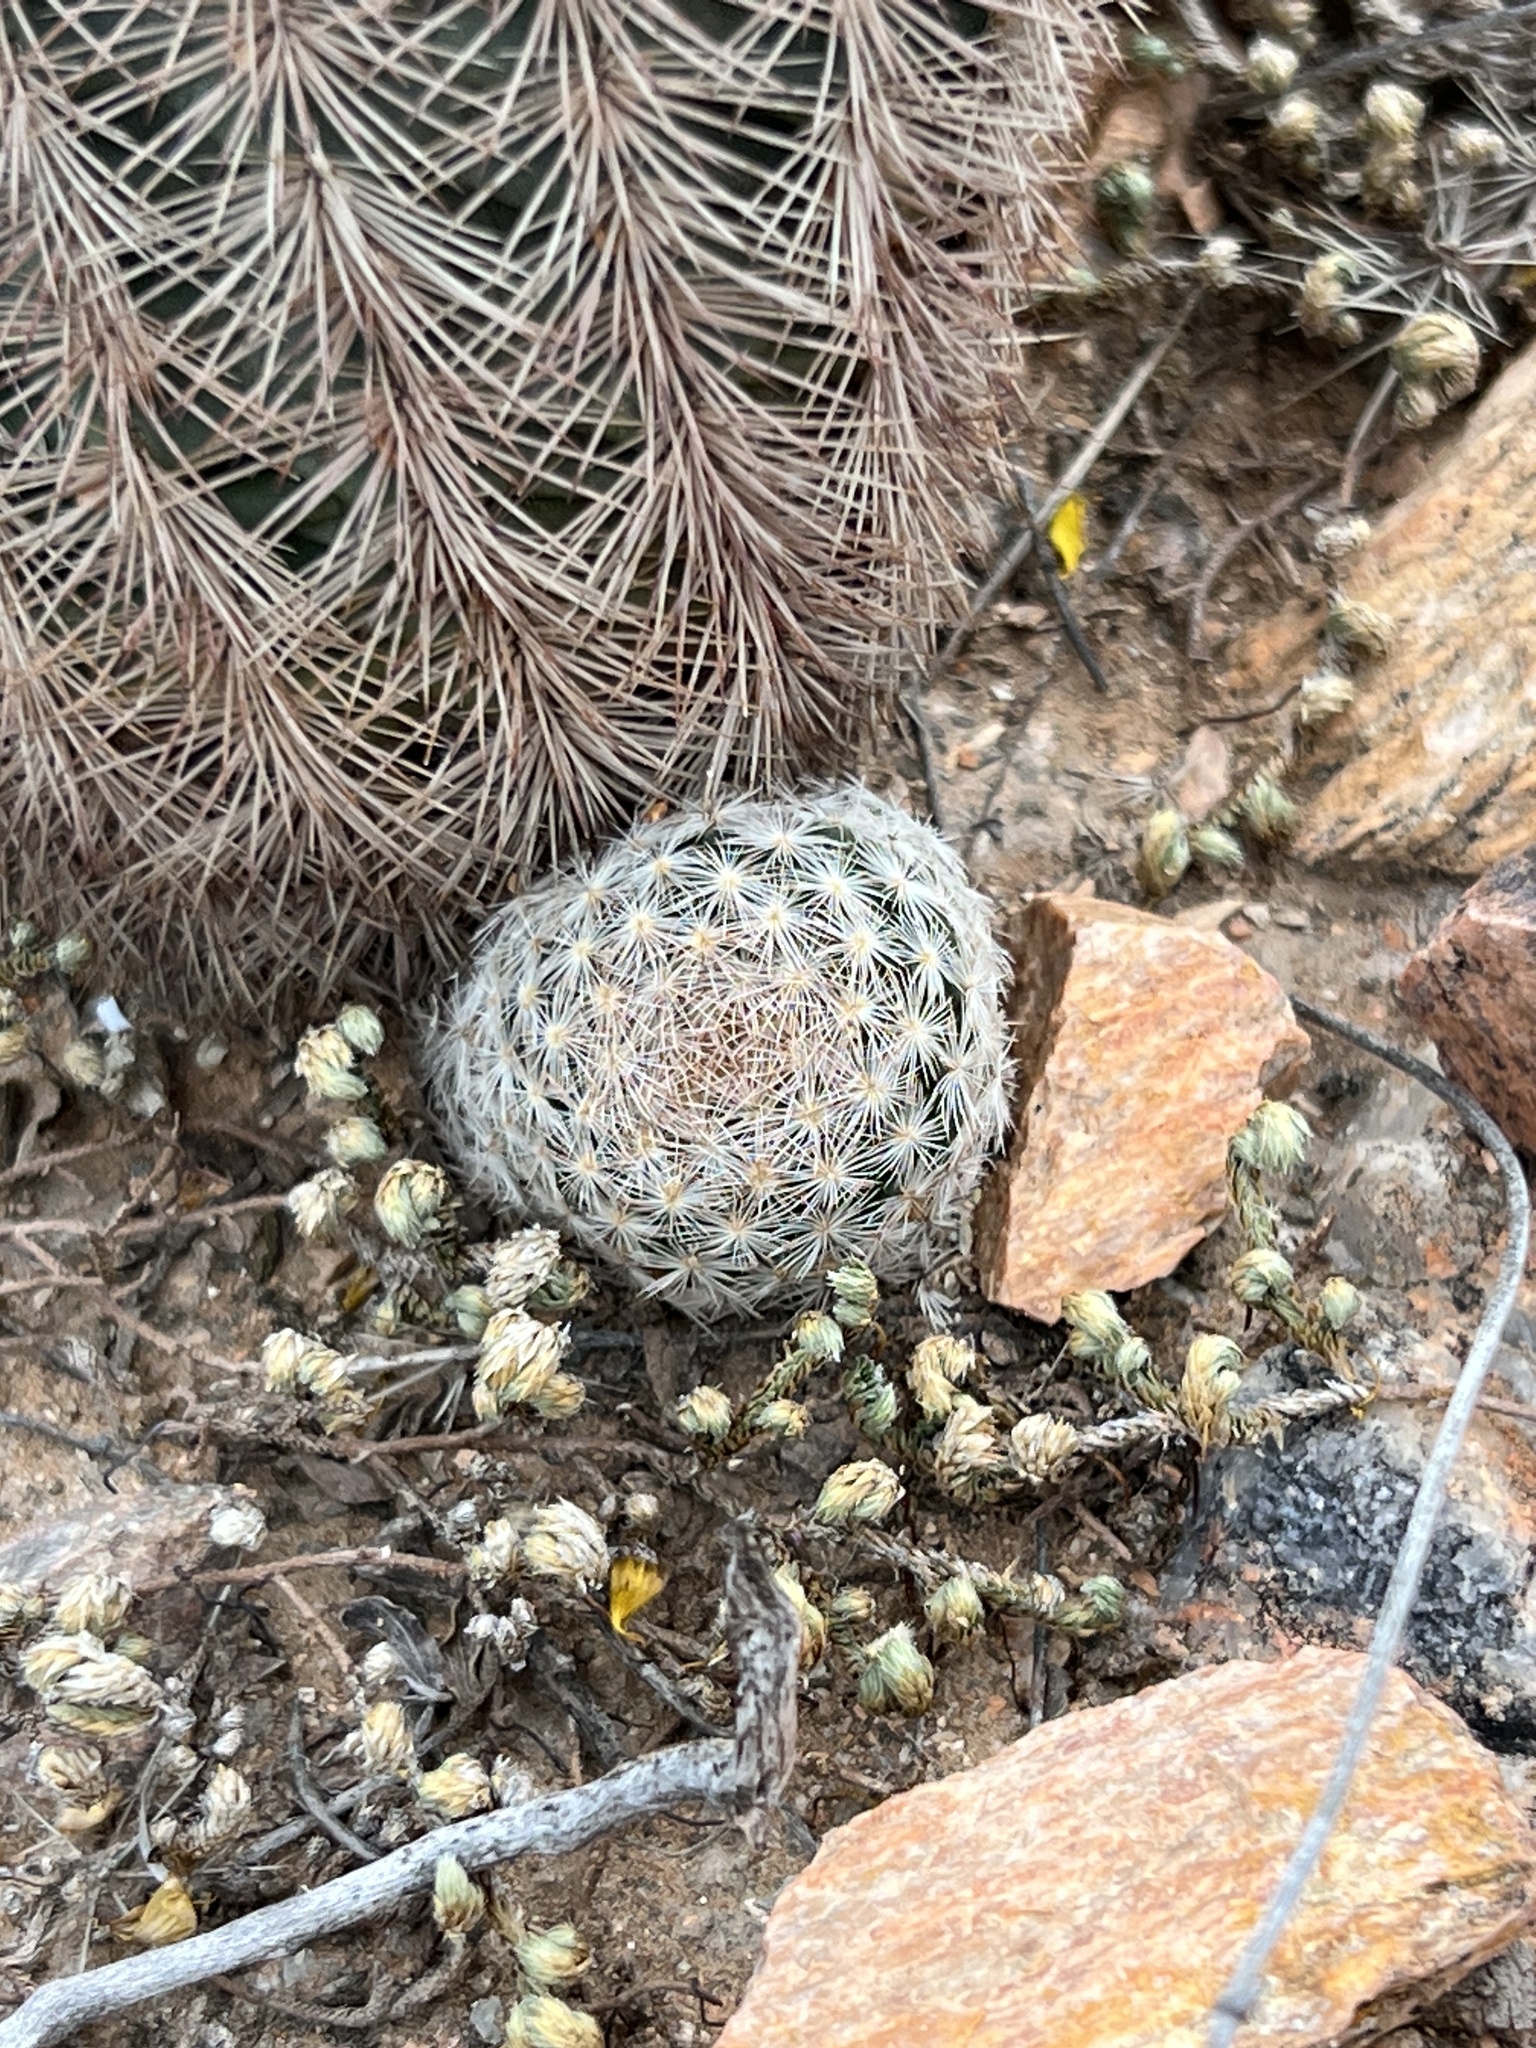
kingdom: Plantae
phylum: Tracheophyta
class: Magnoliopsida
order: Caryophyllales
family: Cactaceae
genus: Mammillaria
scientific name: Mammillaria lasiacantha
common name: Lace-spine nipple cactus
